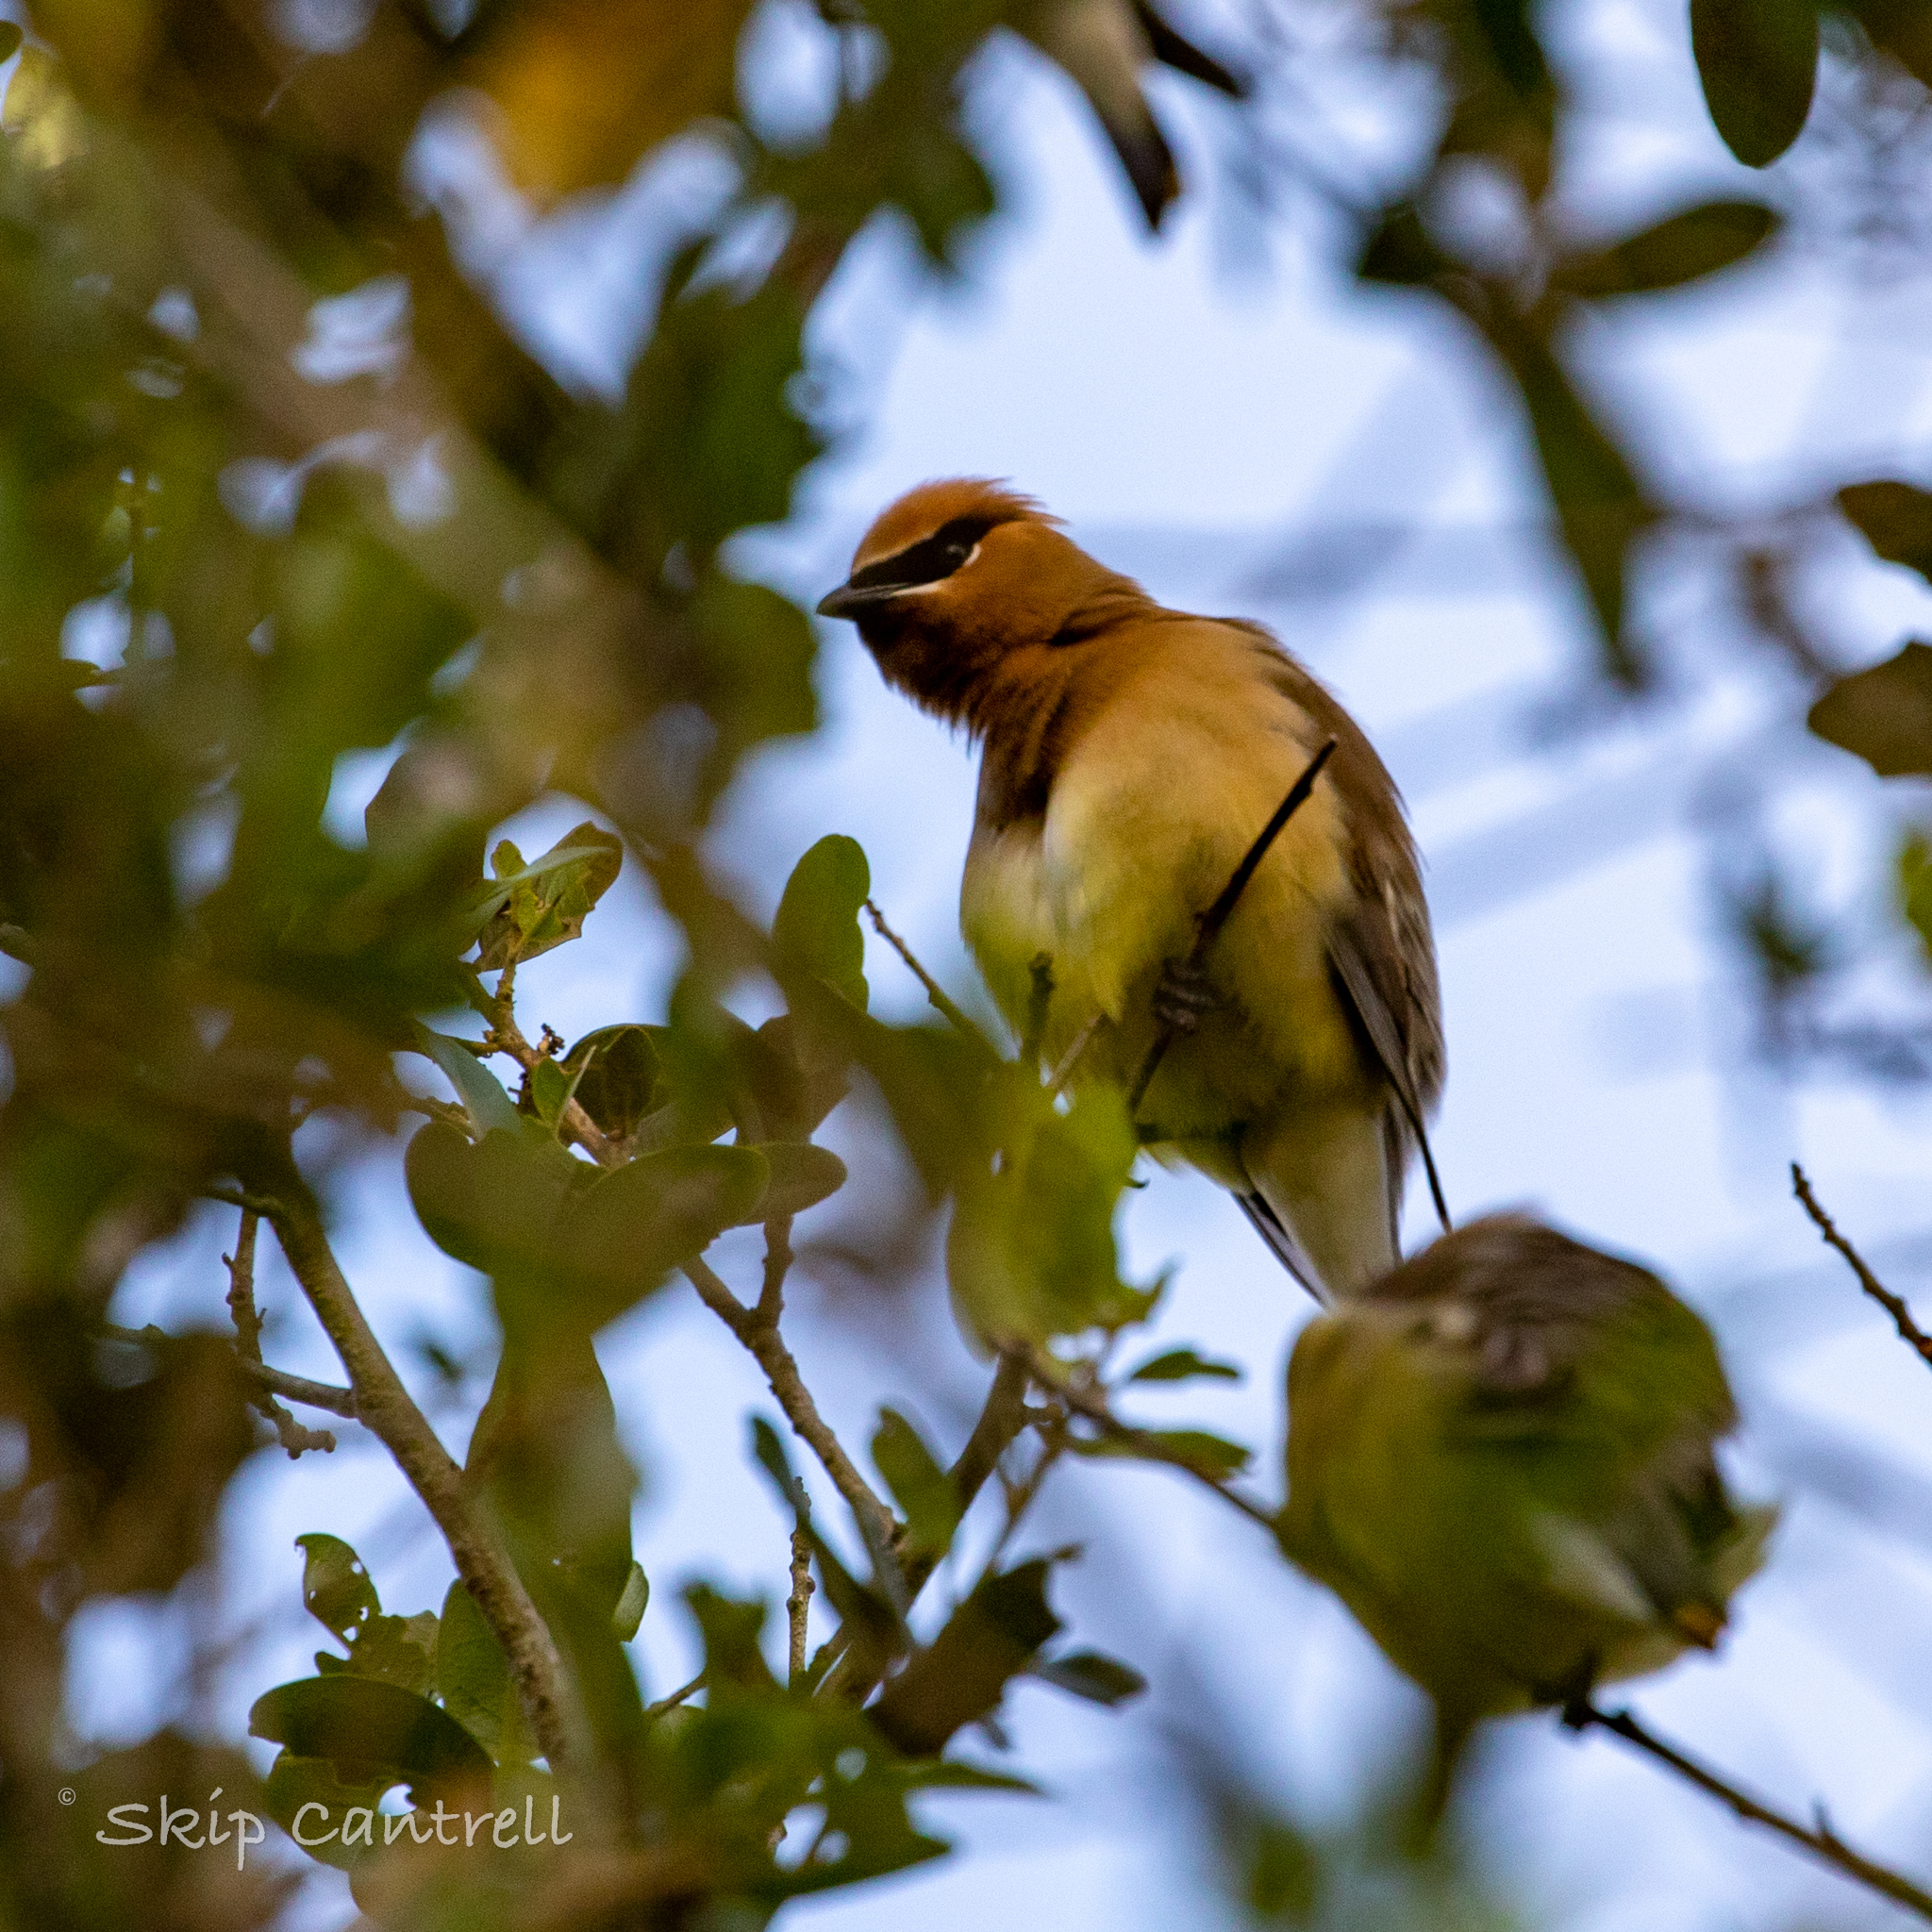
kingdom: Animalia
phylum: Chordata
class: Aves
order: Passeriformes
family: Bombycillidae
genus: Bombycilla
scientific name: Bombycilla cedrorum
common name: Cedar waxwing
